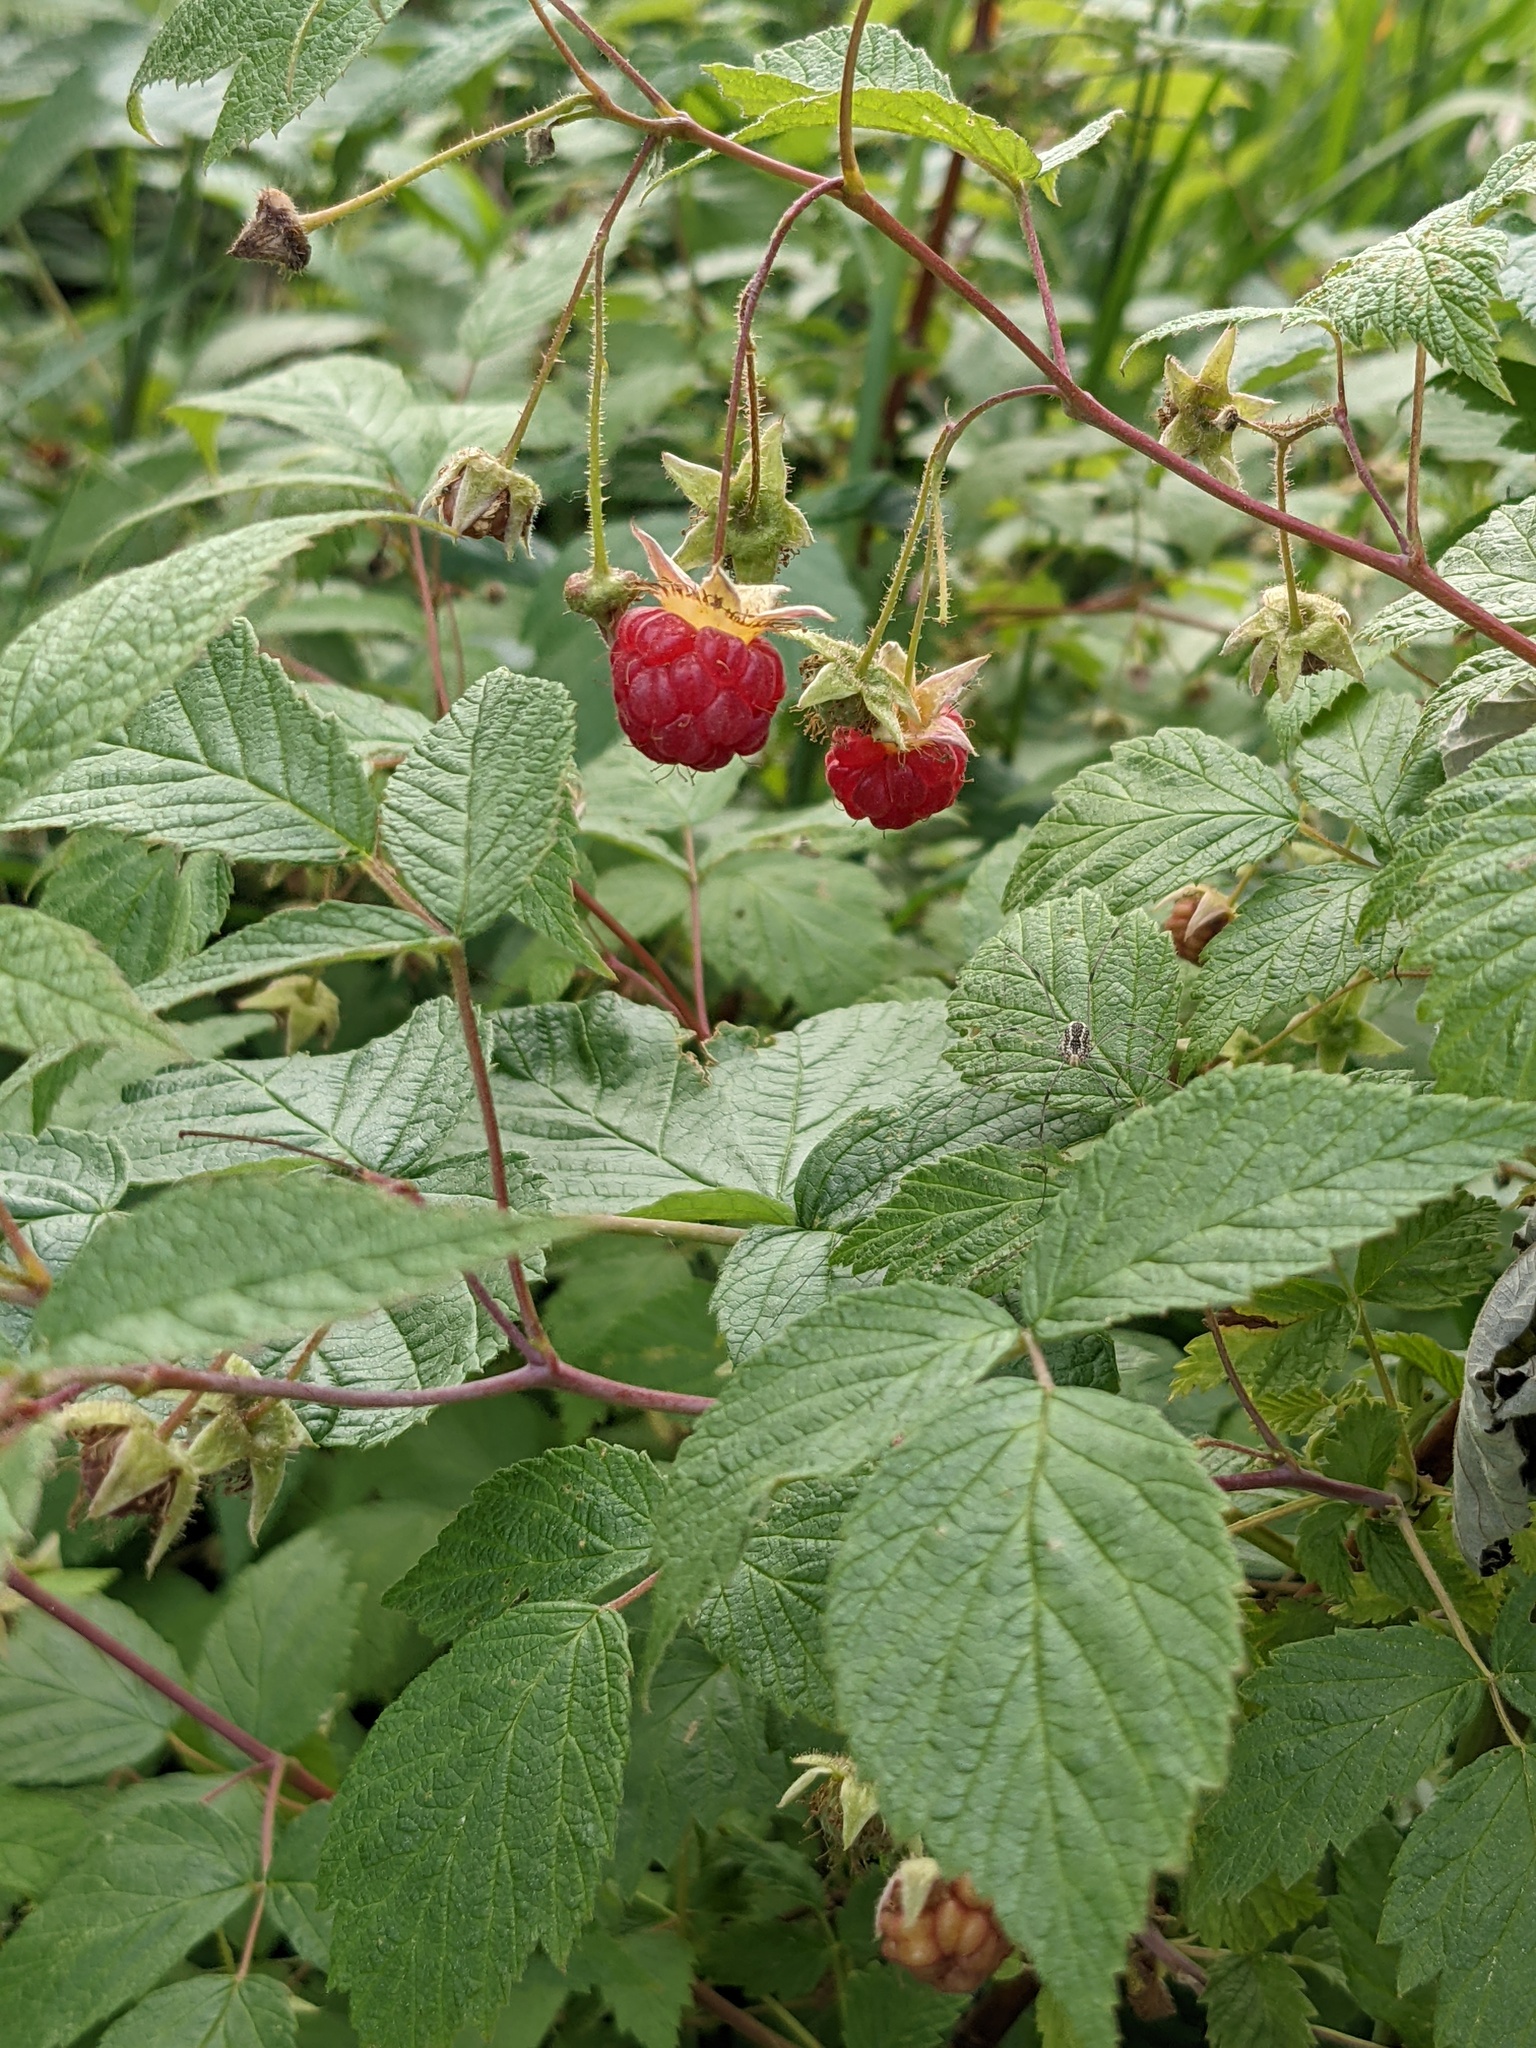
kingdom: Plantae
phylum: Tracheophyta
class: Magnoliopsida
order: Rosales
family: Rosaceae
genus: Rubus
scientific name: Rubus idaeus
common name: Raspberry
